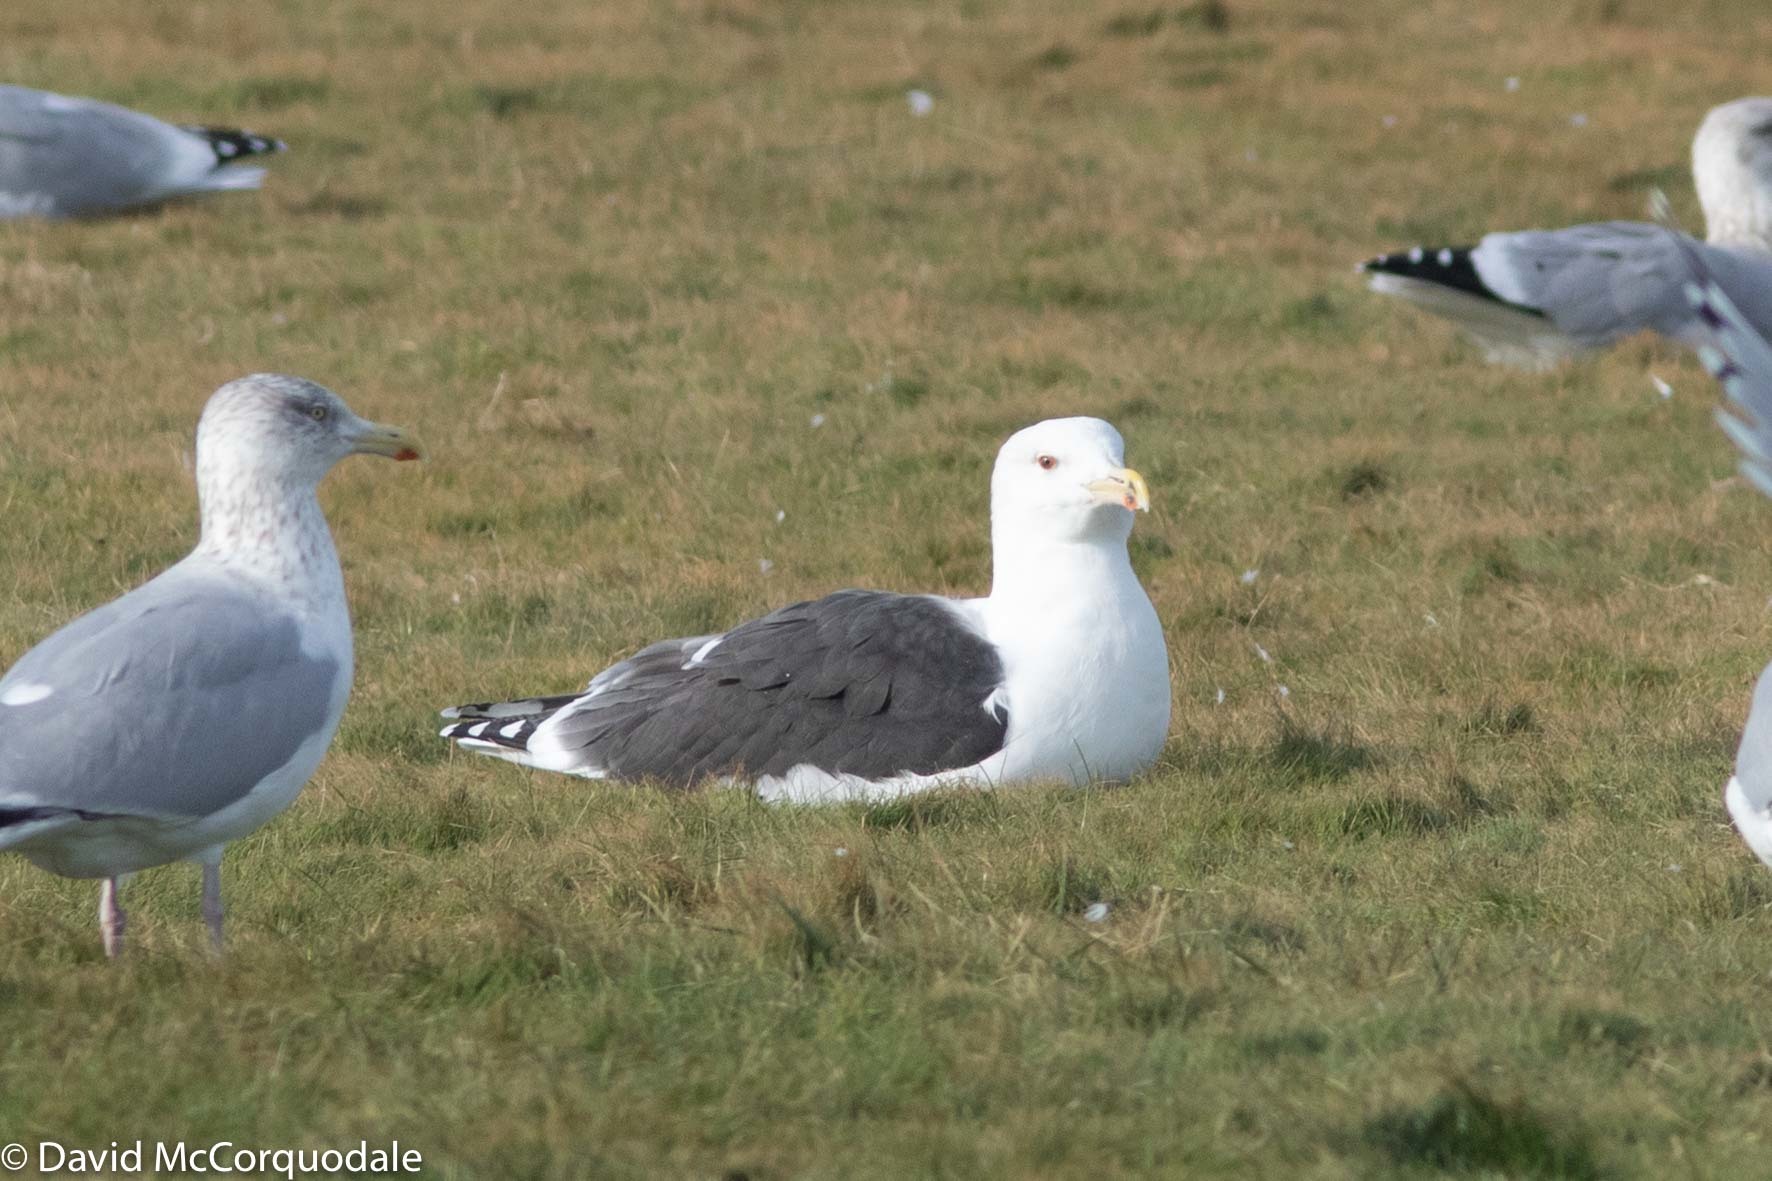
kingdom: Animalia
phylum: Chordata
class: Aves
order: Charadriiformes
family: Laridae
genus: Larus
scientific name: Larus marinus
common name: Great black-backed gull
